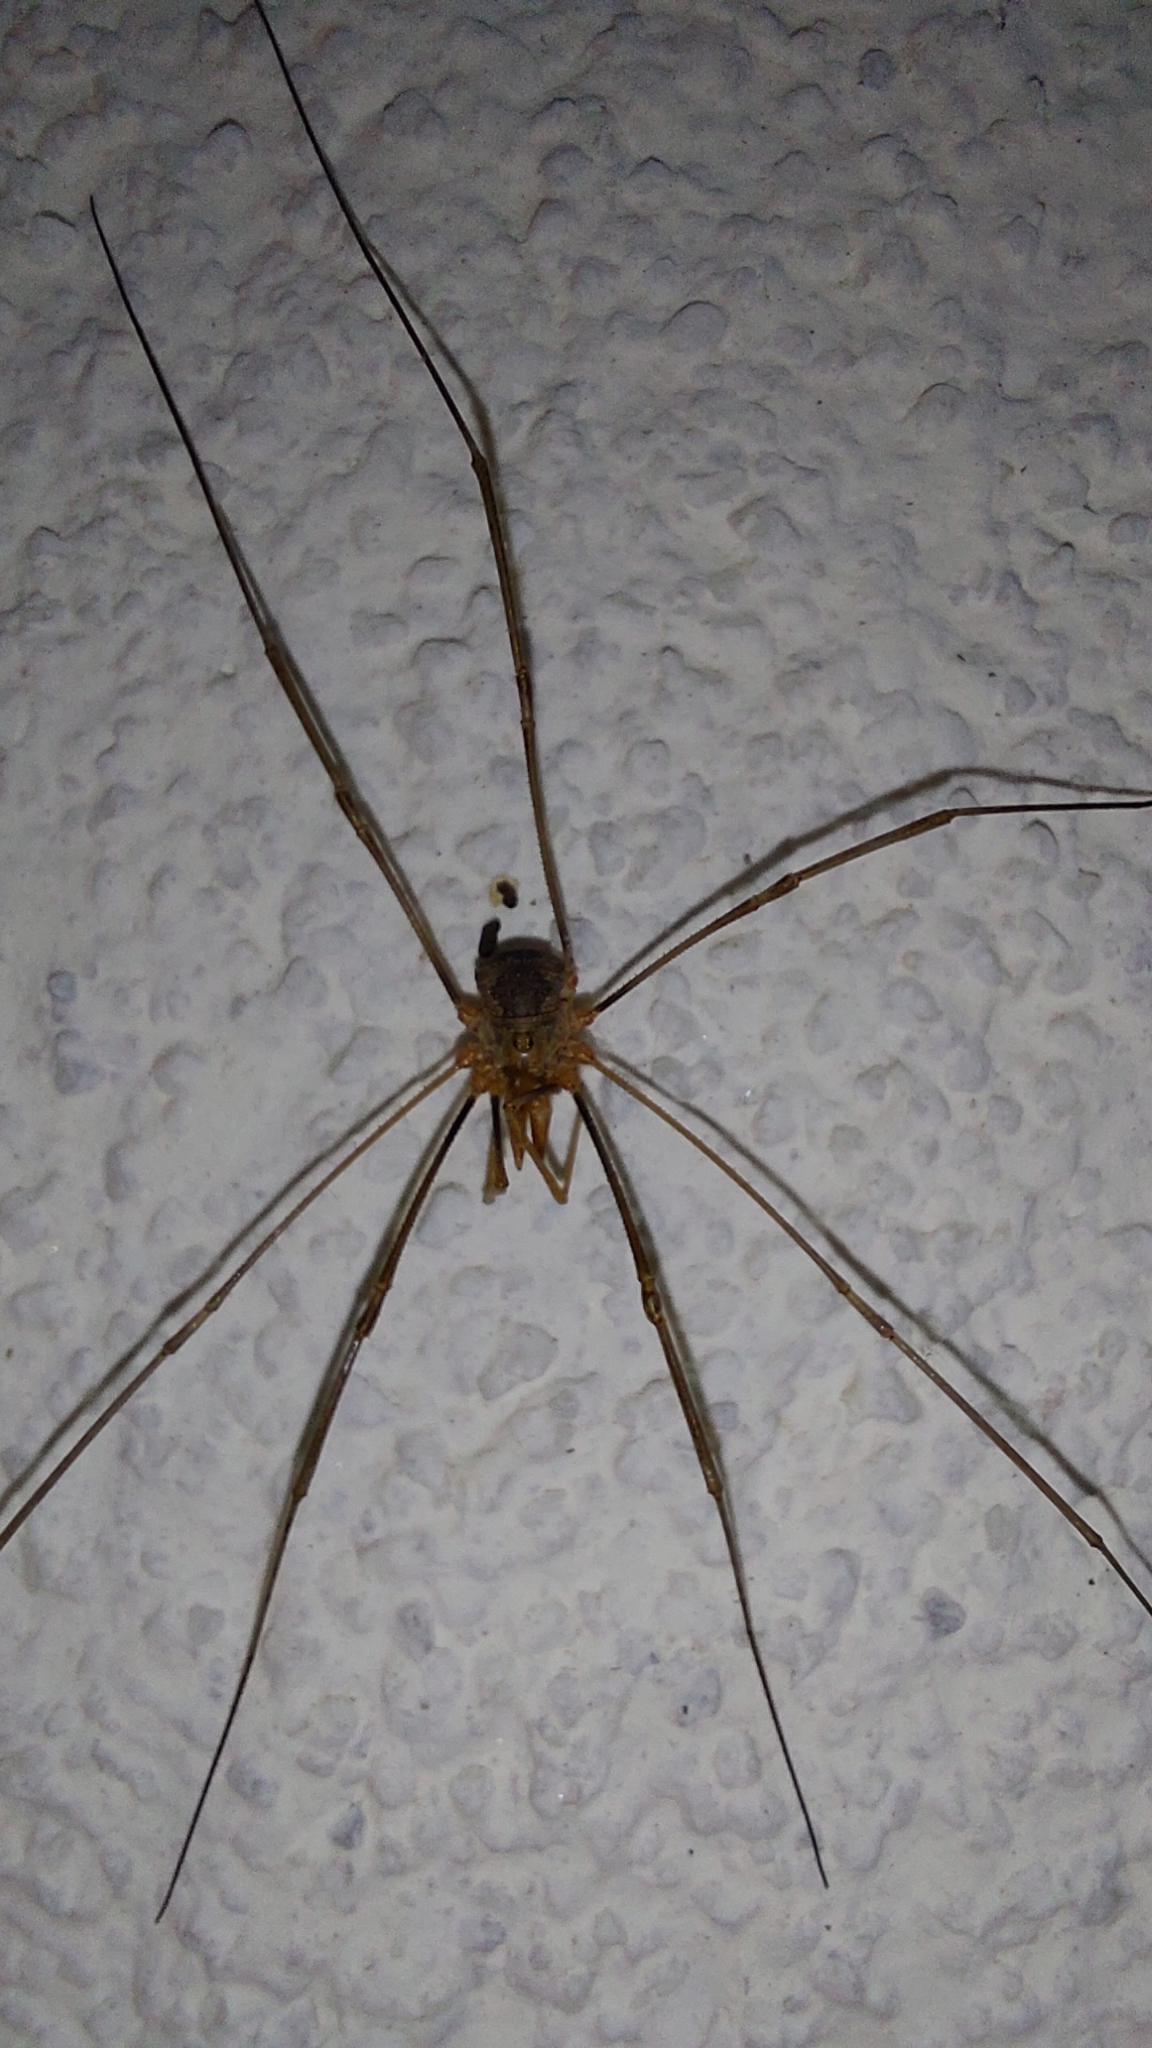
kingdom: Animalia
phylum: Arthropoda
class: Arachnida
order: Opiliones
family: Phalangiidae
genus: Phalangium
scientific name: Phalangium opilio
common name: Daddy longleg
